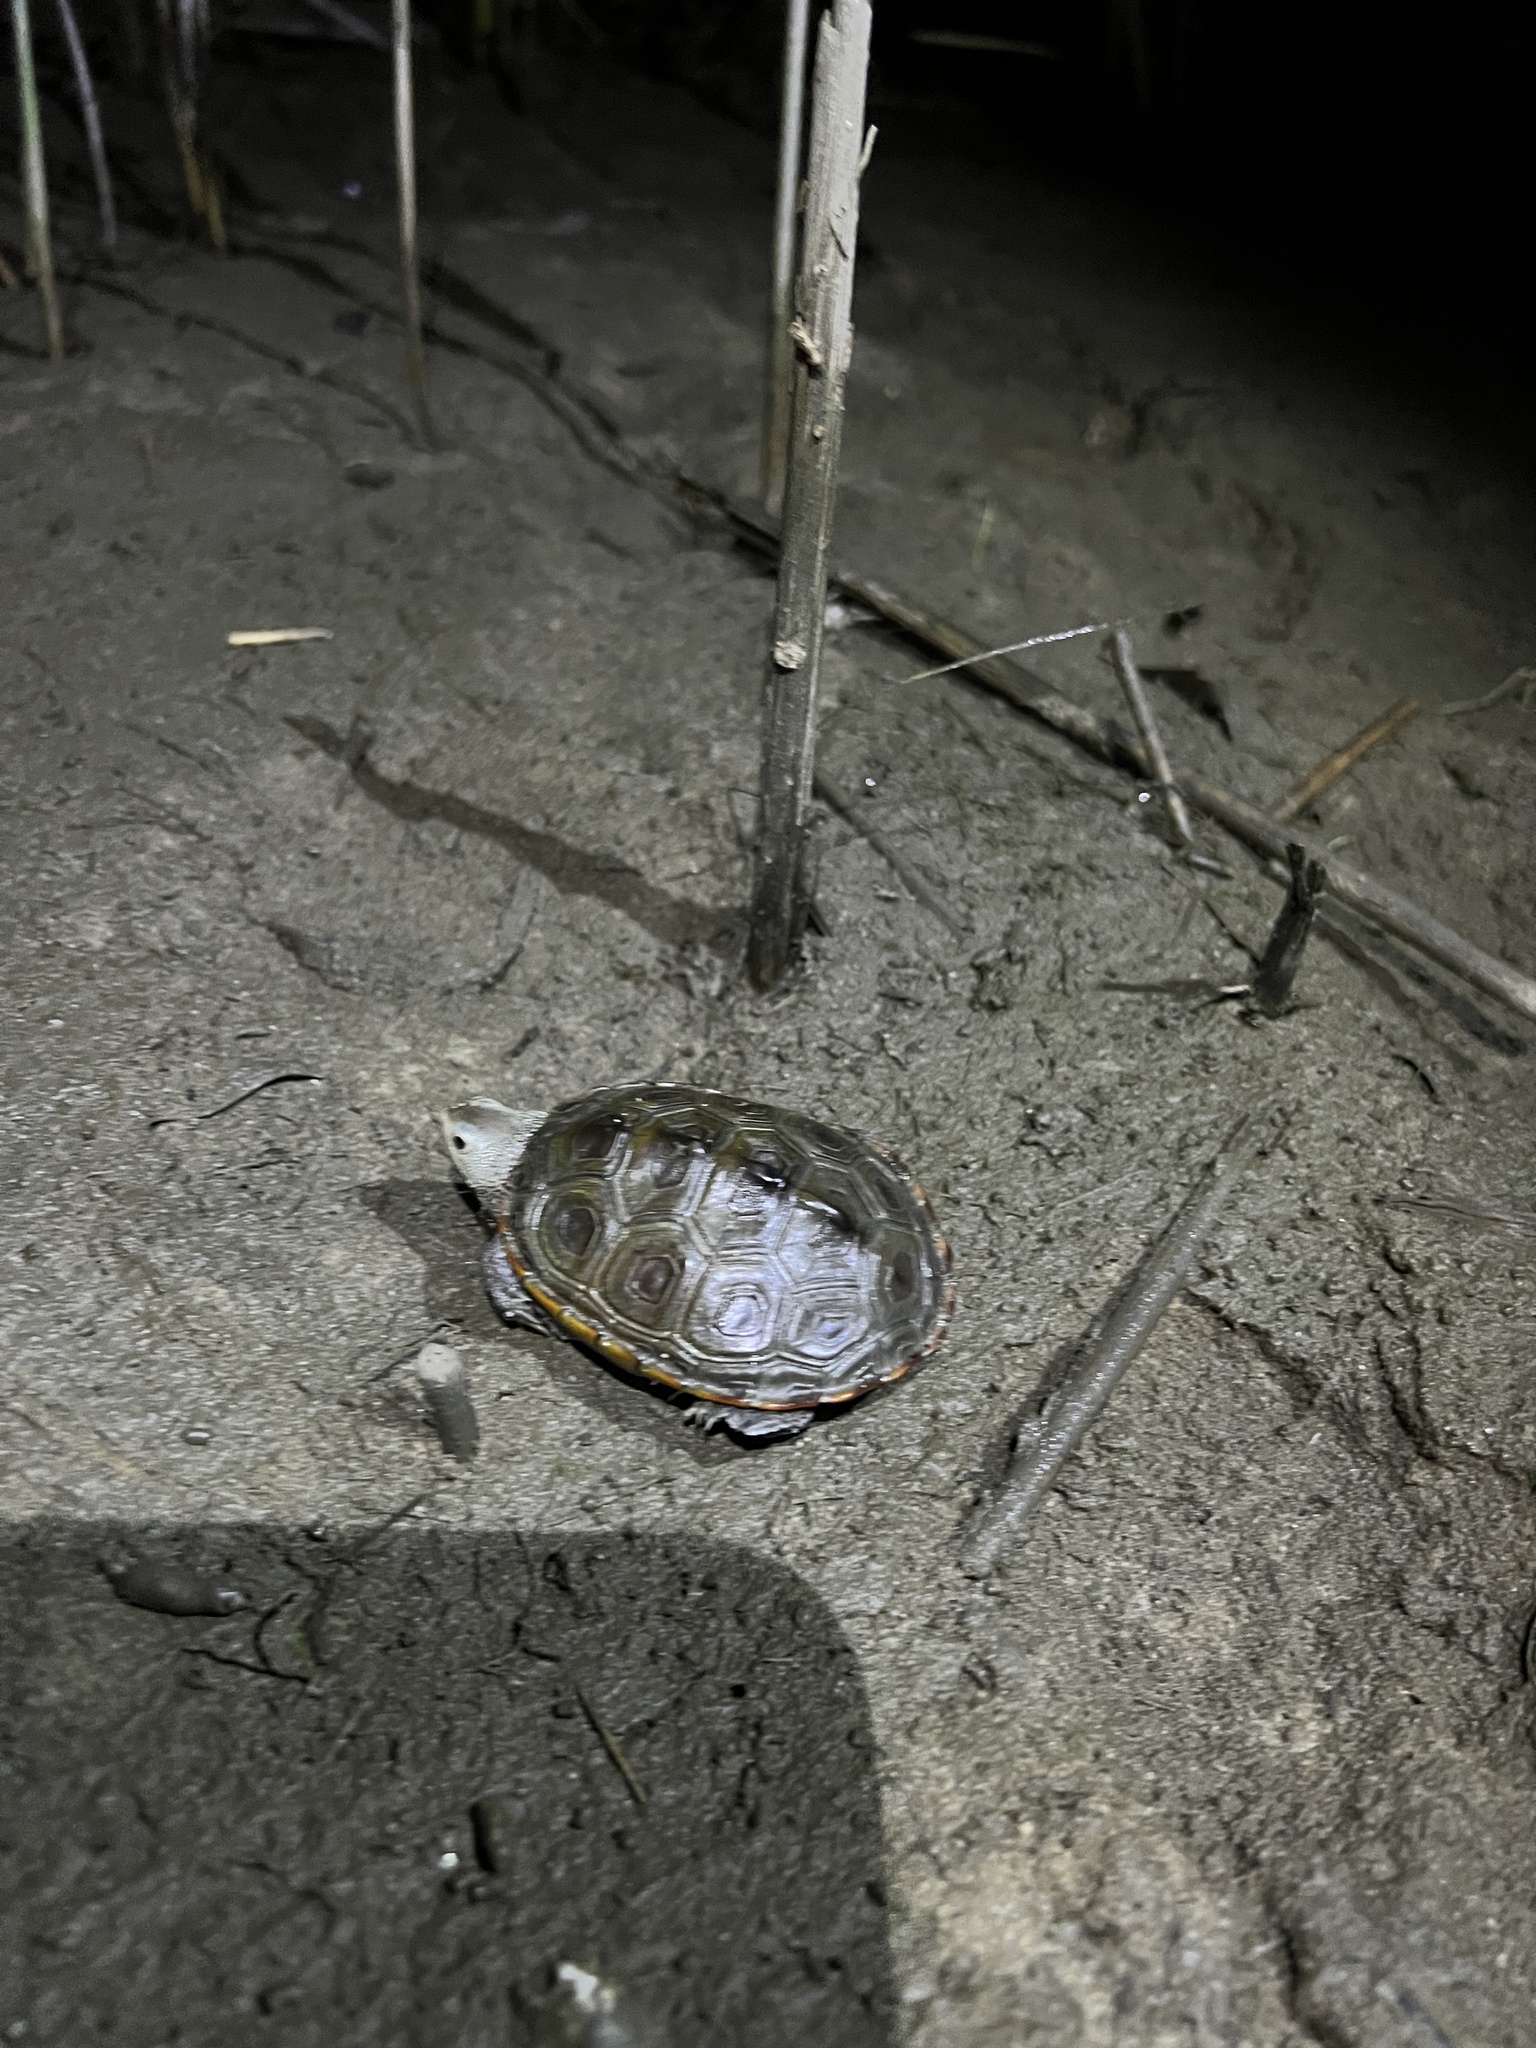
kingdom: Animalia
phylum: Chordata
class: Testudines
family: Emydidae
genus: Malaclemys
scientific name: Malaclemys terrapin
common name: Diamondback terrapin
